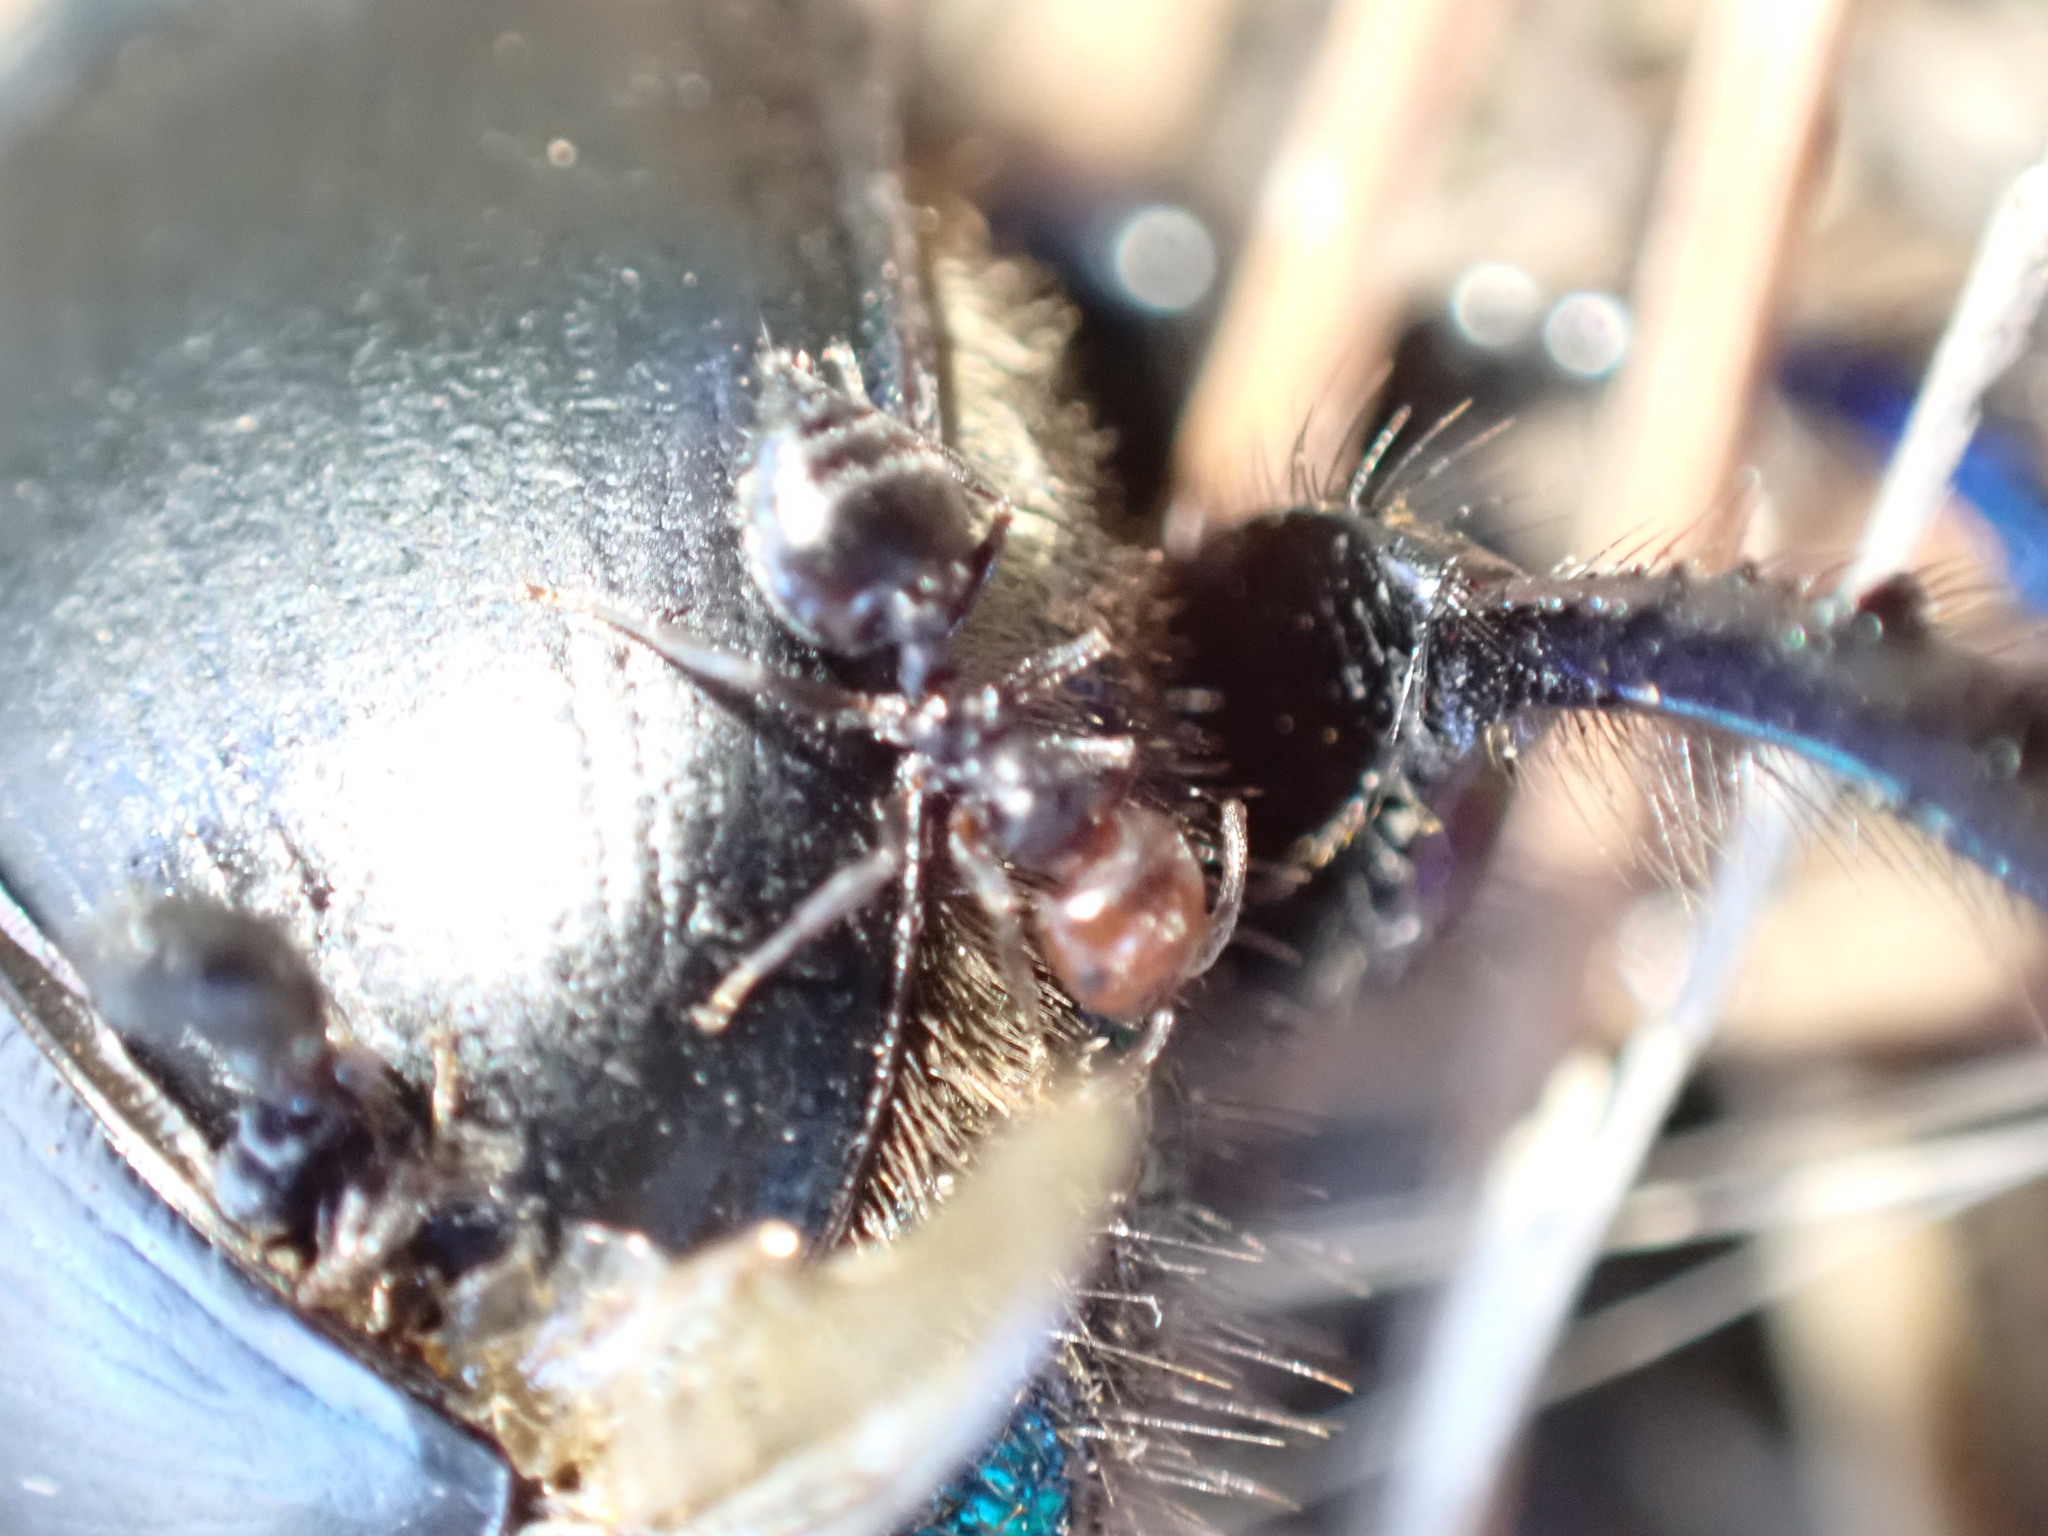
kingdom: Animalia
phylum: Arthropoda
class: Insecta
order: Hymenoptera
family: Formicidae
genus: Crematogaster
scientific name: Crematogaster scutellaris
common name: Fourmi du liège
